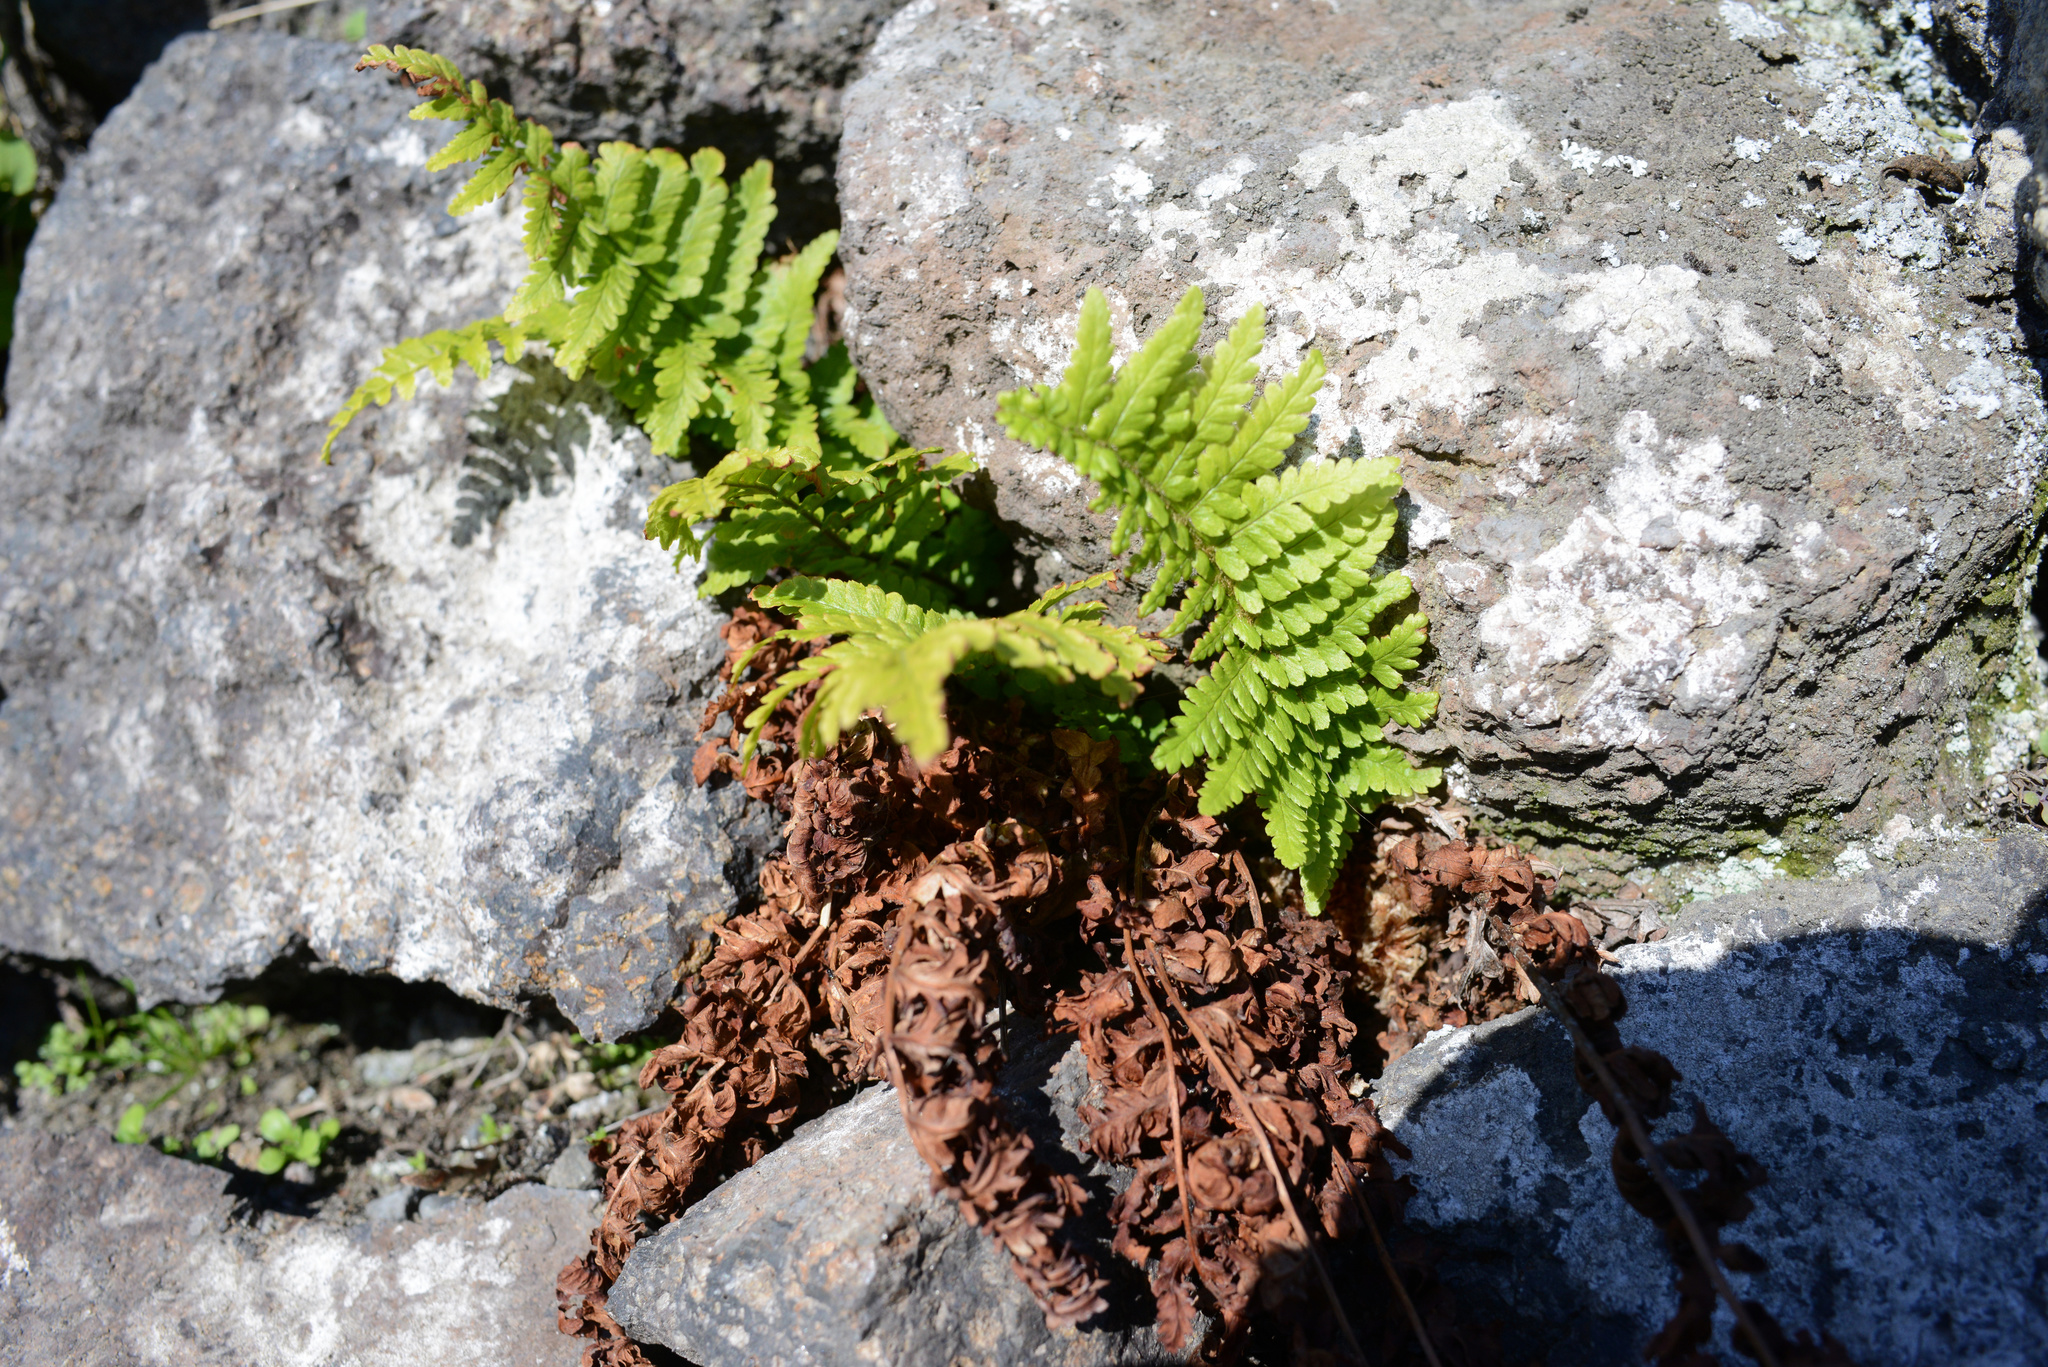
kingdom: Plantae
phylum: Tracheophyta
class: Polypodiopsida
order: Polypodiales
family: Dryopteridaceae
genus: Dryopteris
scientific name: Dryopteris filix-mas
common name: Male fern
